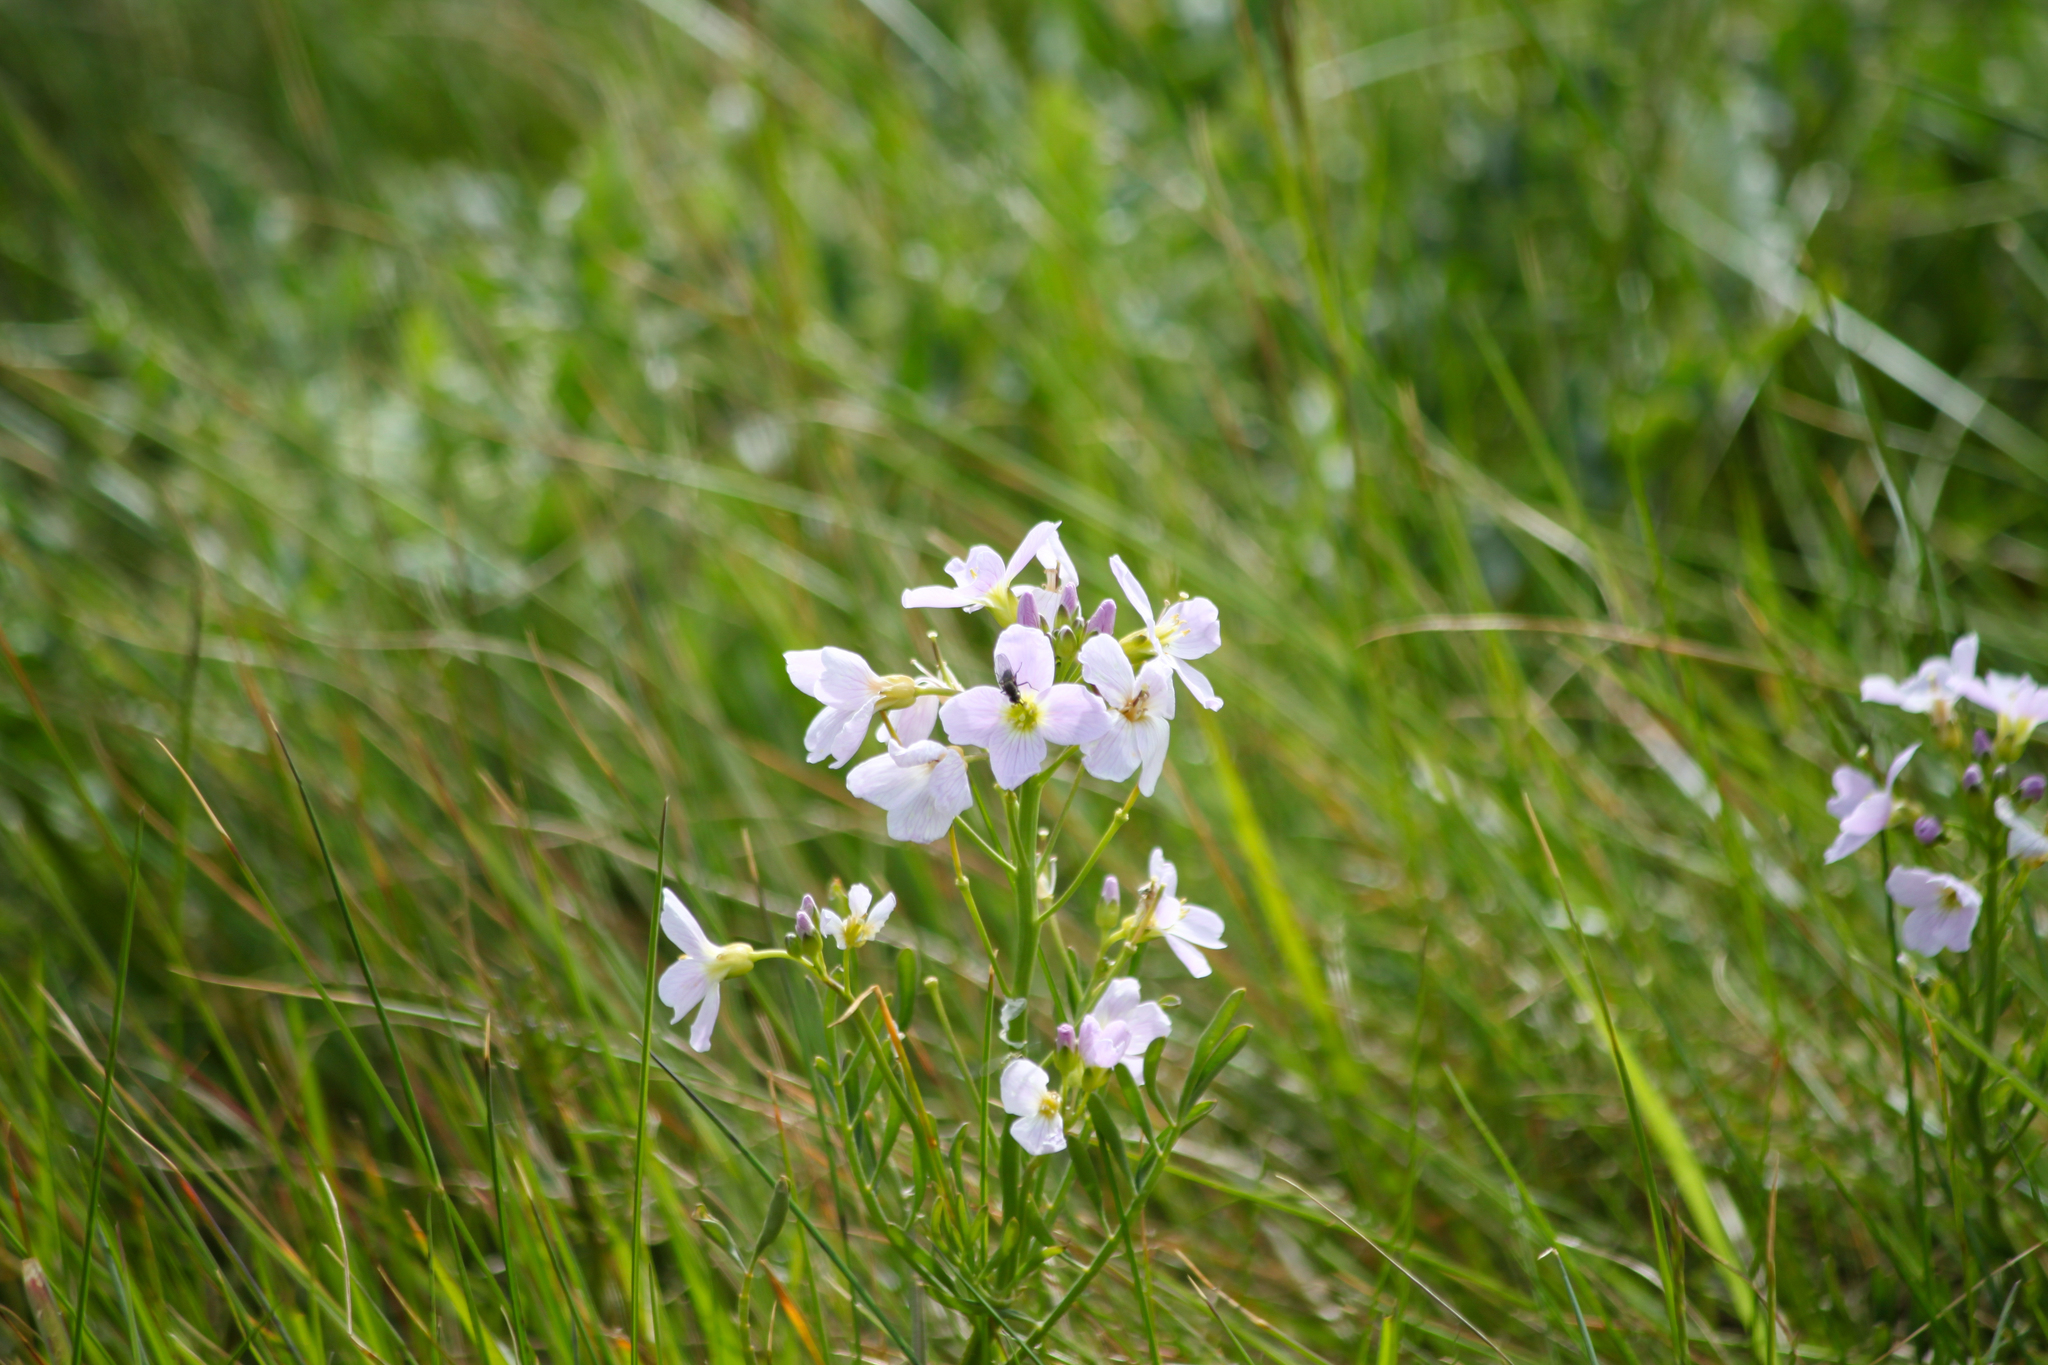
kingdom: Plantae
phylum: Tracheophyta
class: Magnoliopsida
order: Brassicales
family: Brassicaceae
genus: Cardamine
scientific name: Cardamine pratensis
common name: Cuckoo flower
